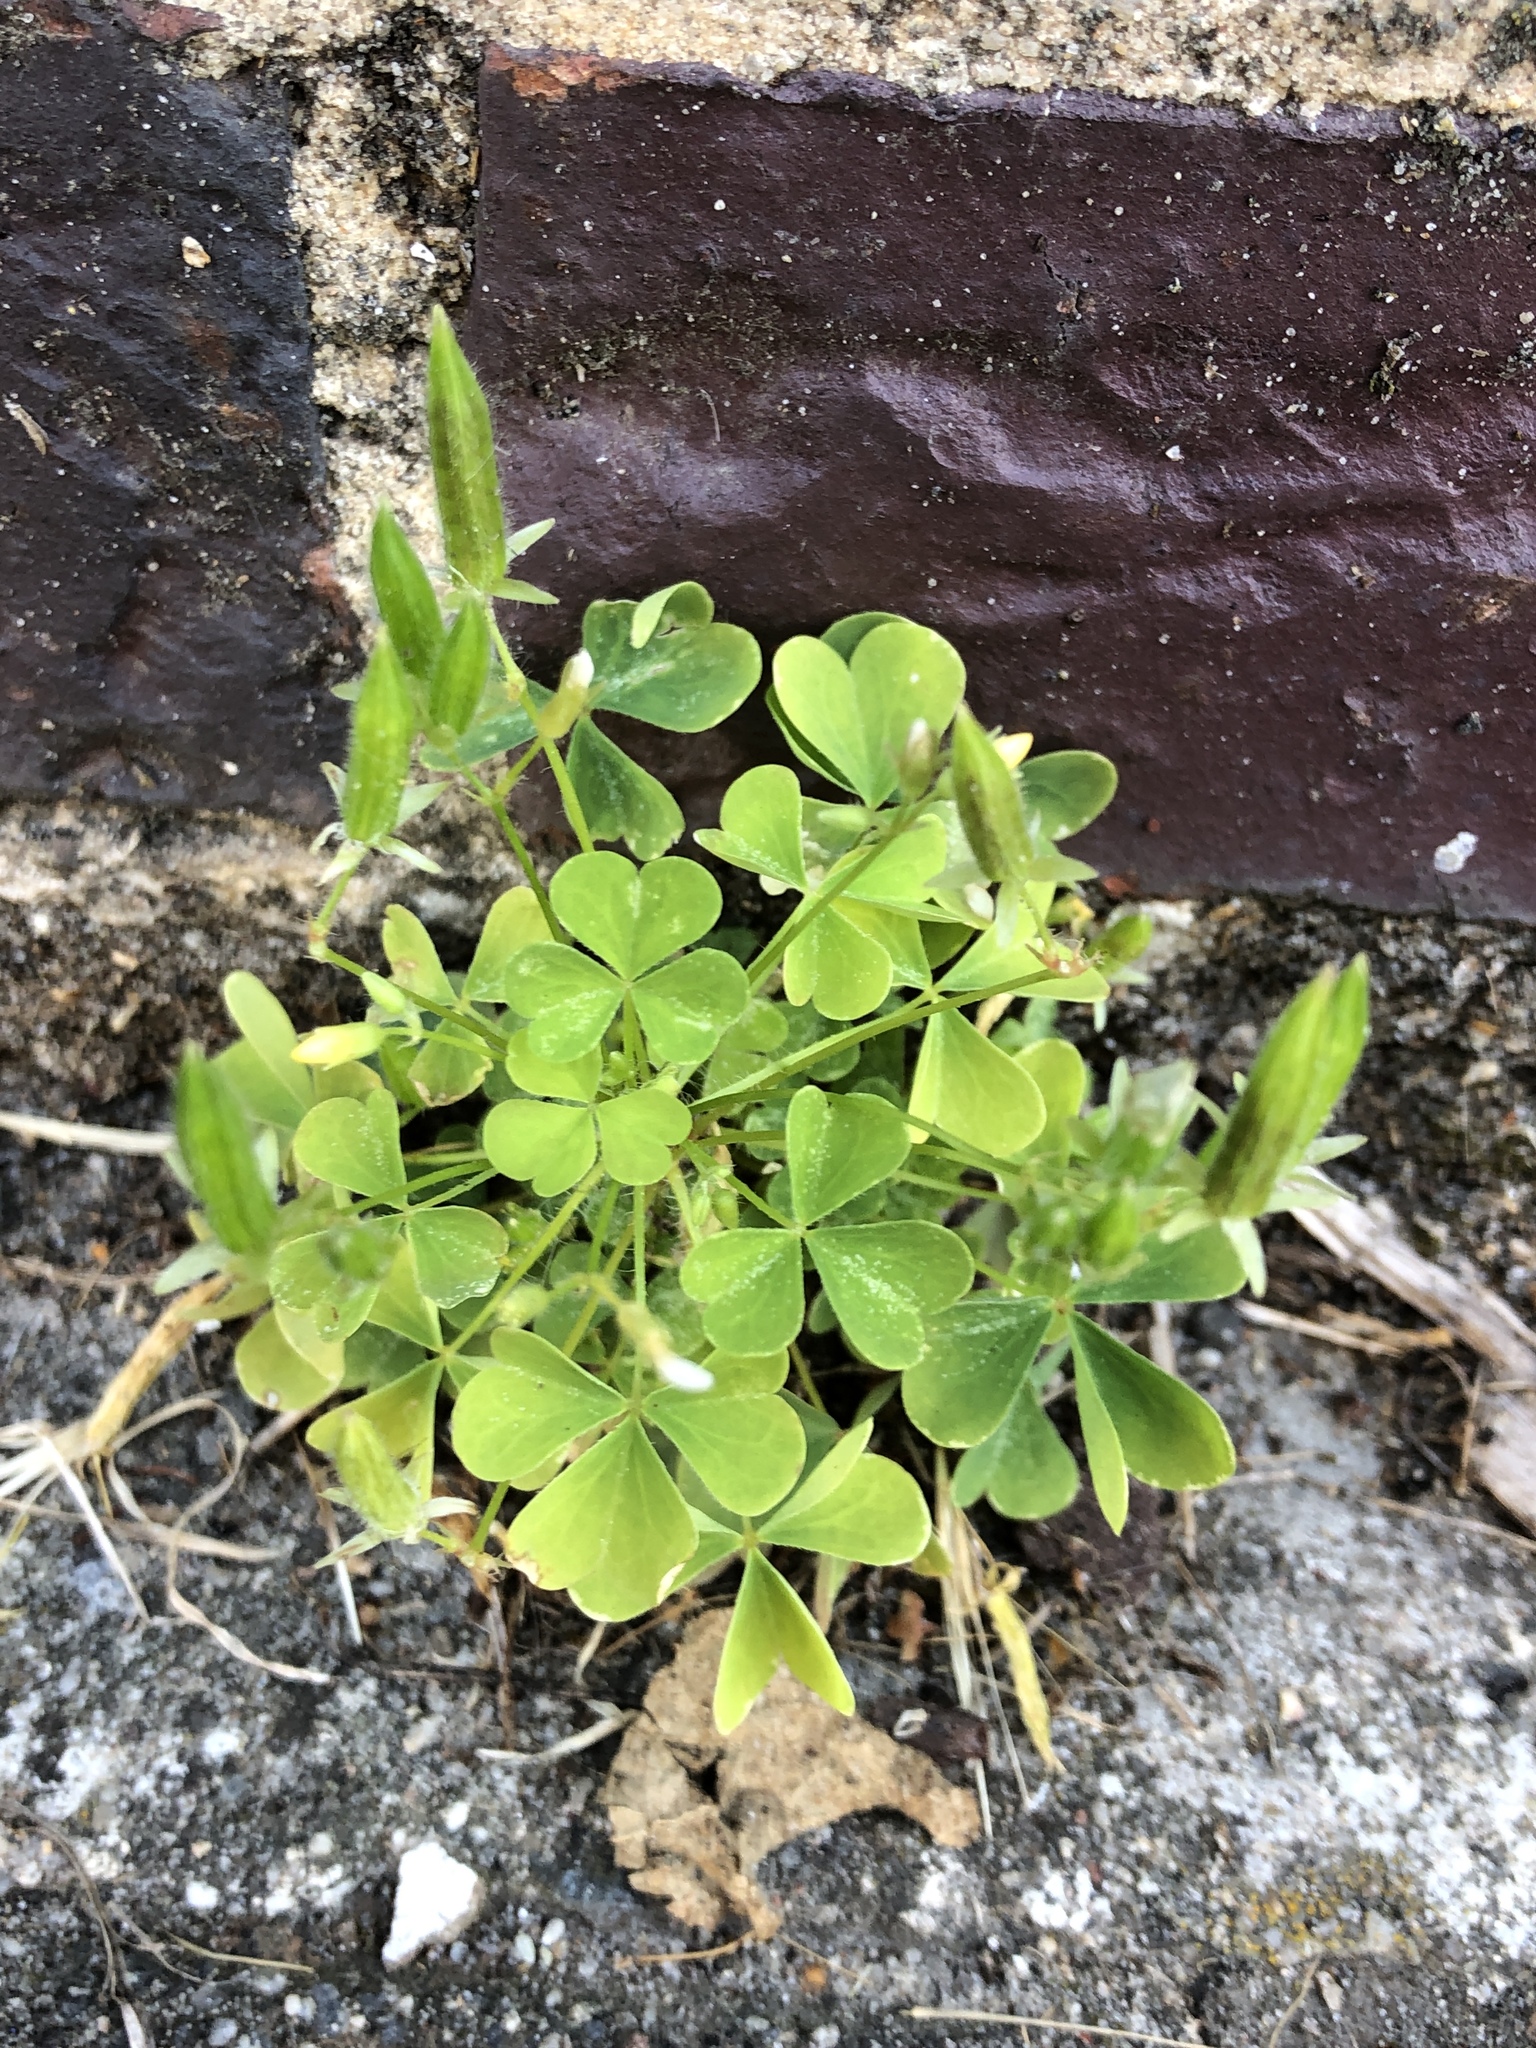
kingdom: Plantae
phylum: Tracheophyta
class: Magnoliopsida
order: Oxalidales
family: Oxalidaceae
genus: Oxalis
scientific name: Oxalis stricta
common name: Upright yellow-sorrel
